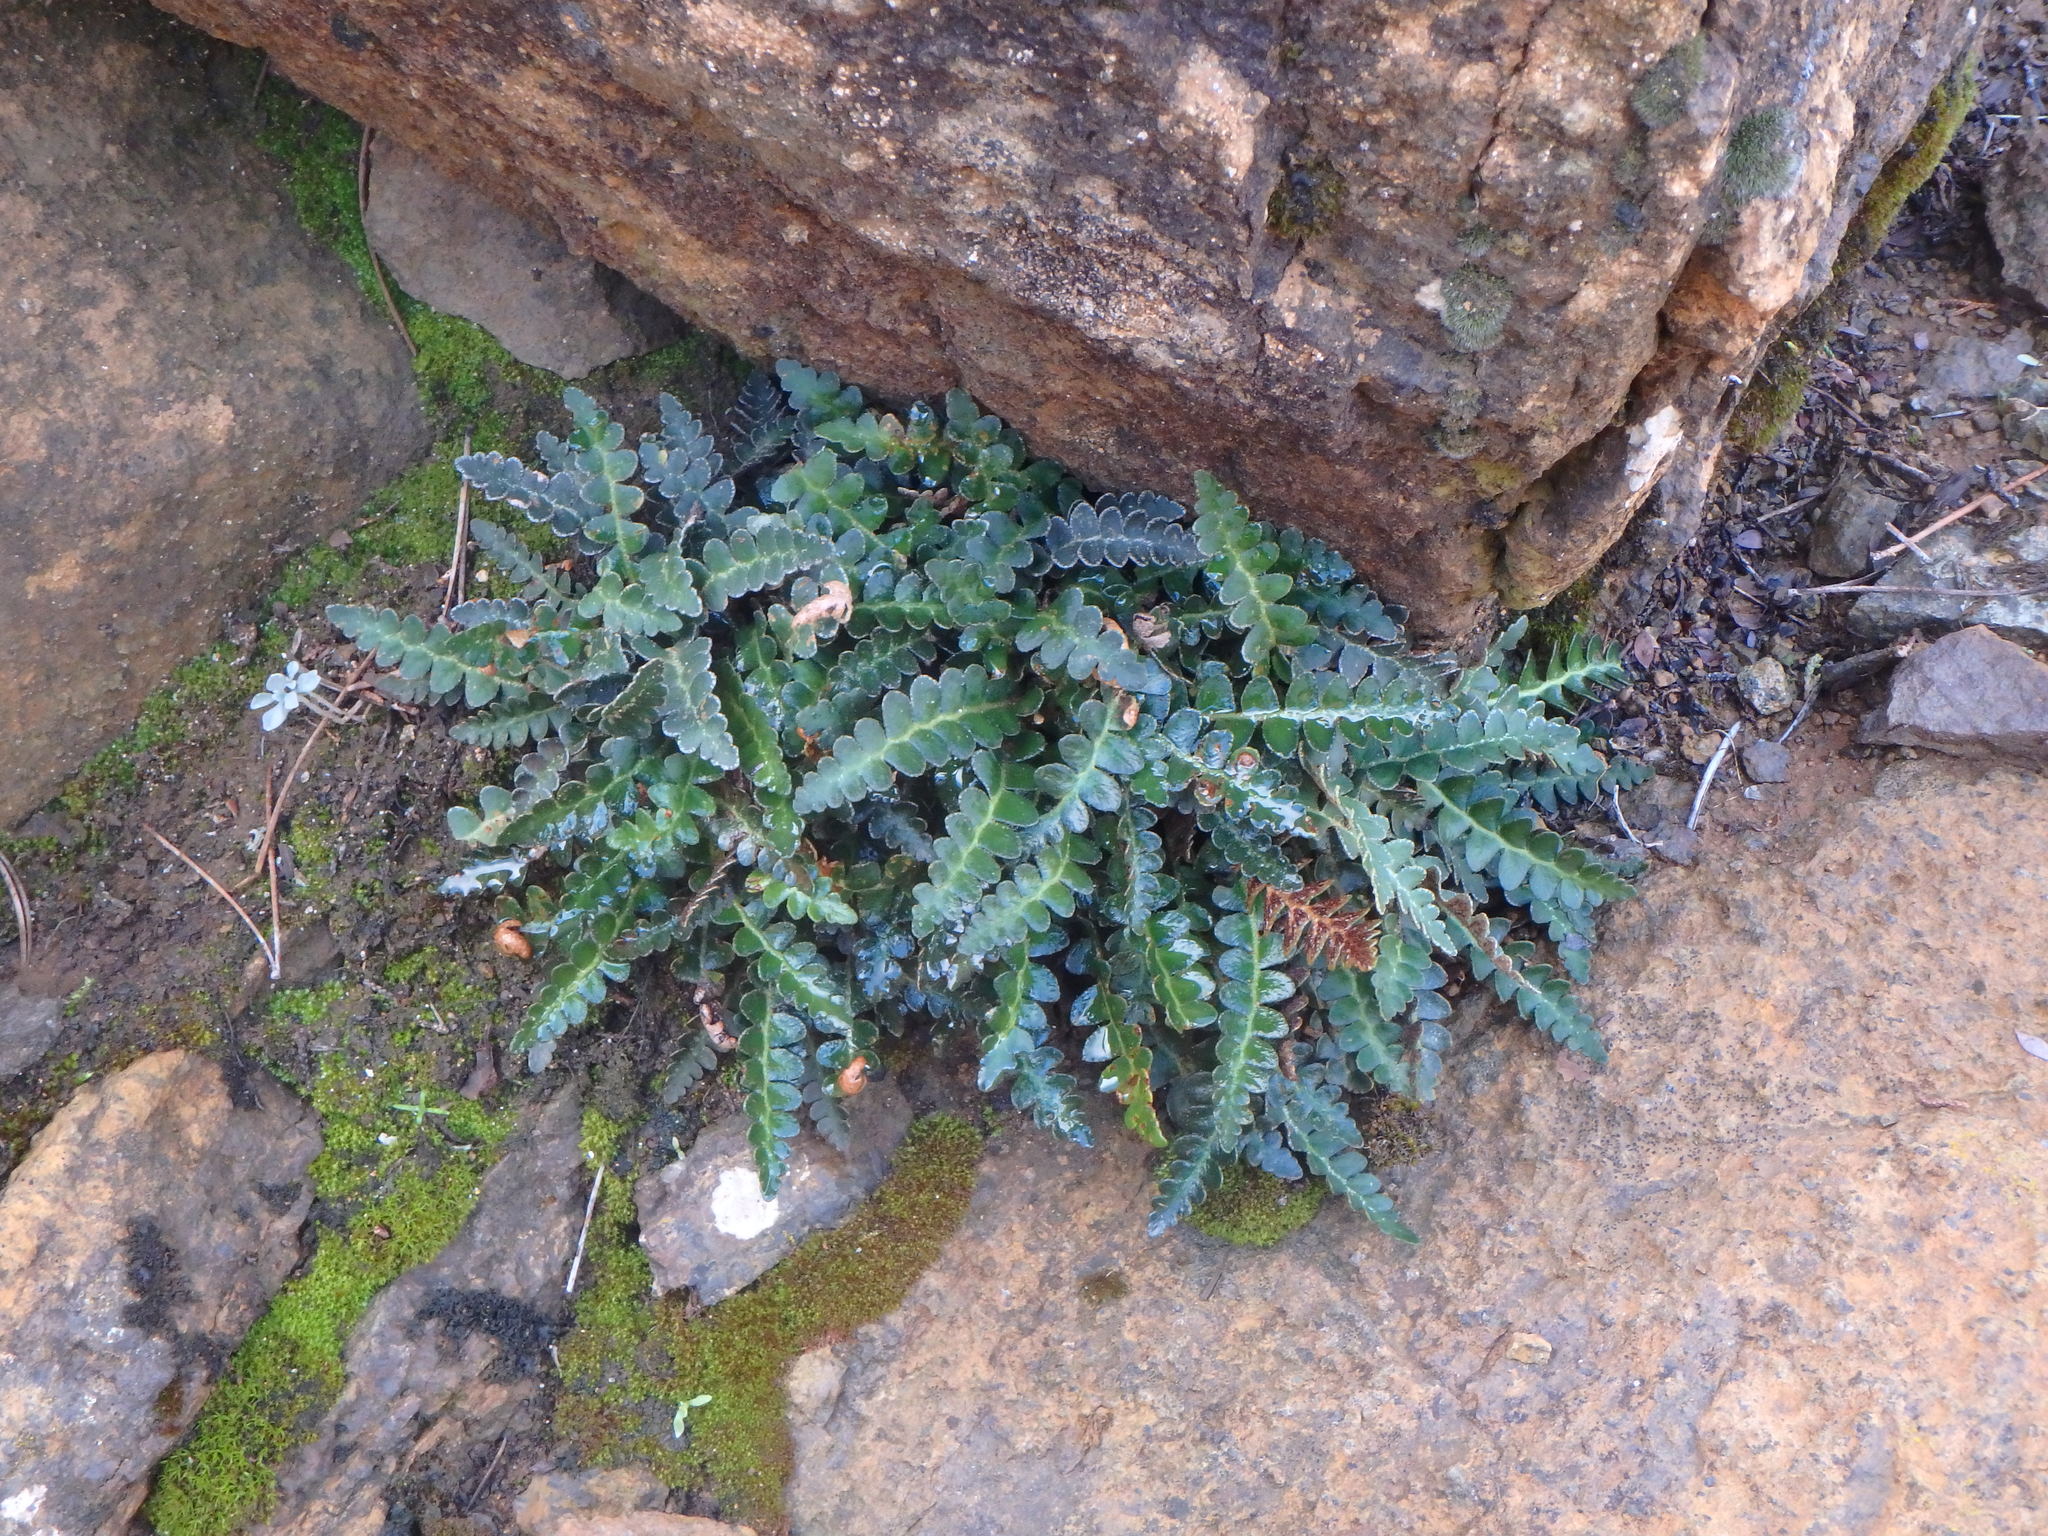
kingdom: Plantae
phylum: Tracheophyta
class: Polypodiopsida
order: Polypodiales
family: Aspleniaceae
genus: Asplenium
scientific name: Asplenium ceterach
